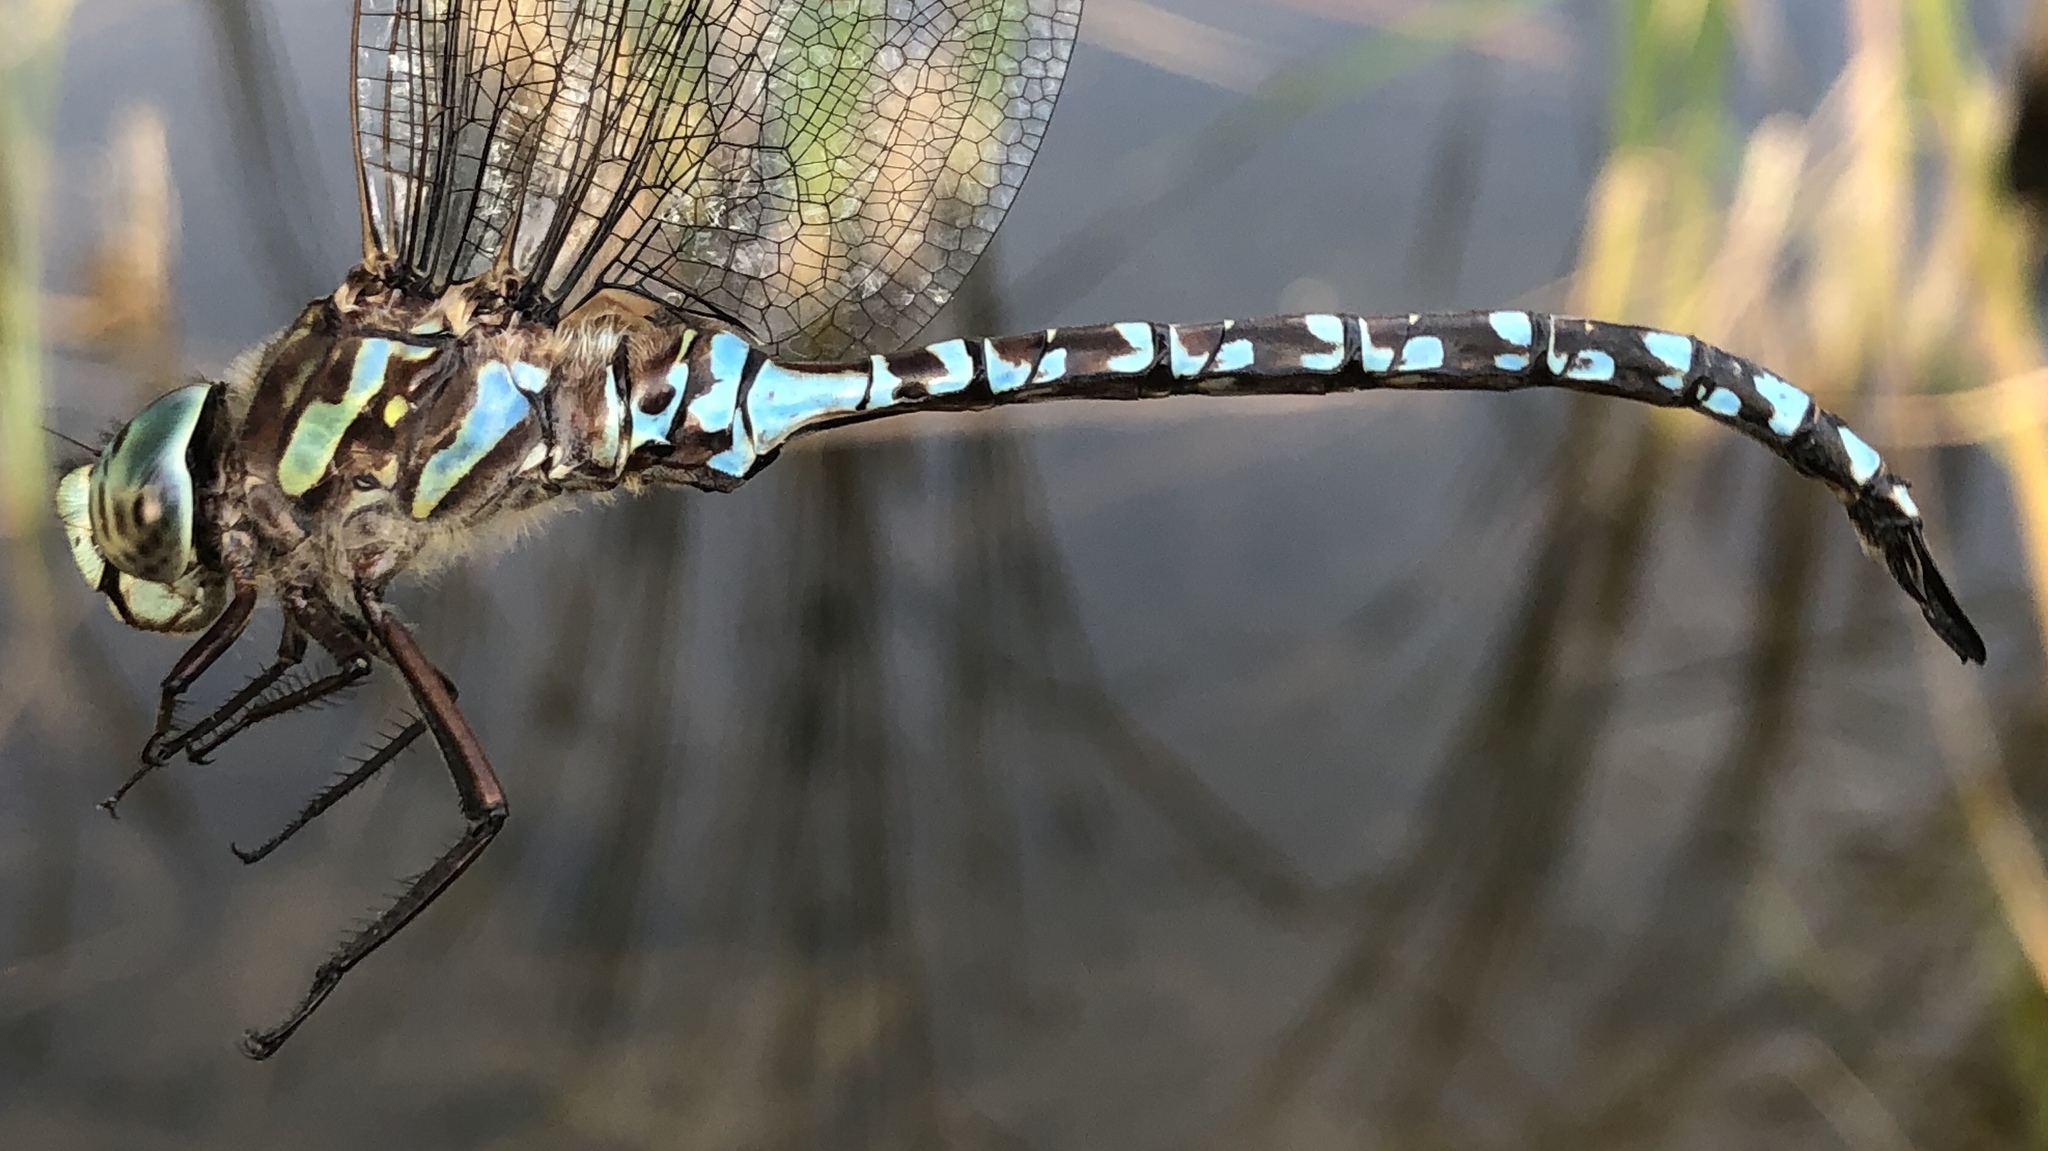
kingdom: Animalia
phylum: Arthropoda
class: Insecta
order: Odonata
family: Aeshnidae
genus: Aeshna
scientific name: Aeshna canadensis
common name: Canada darner
